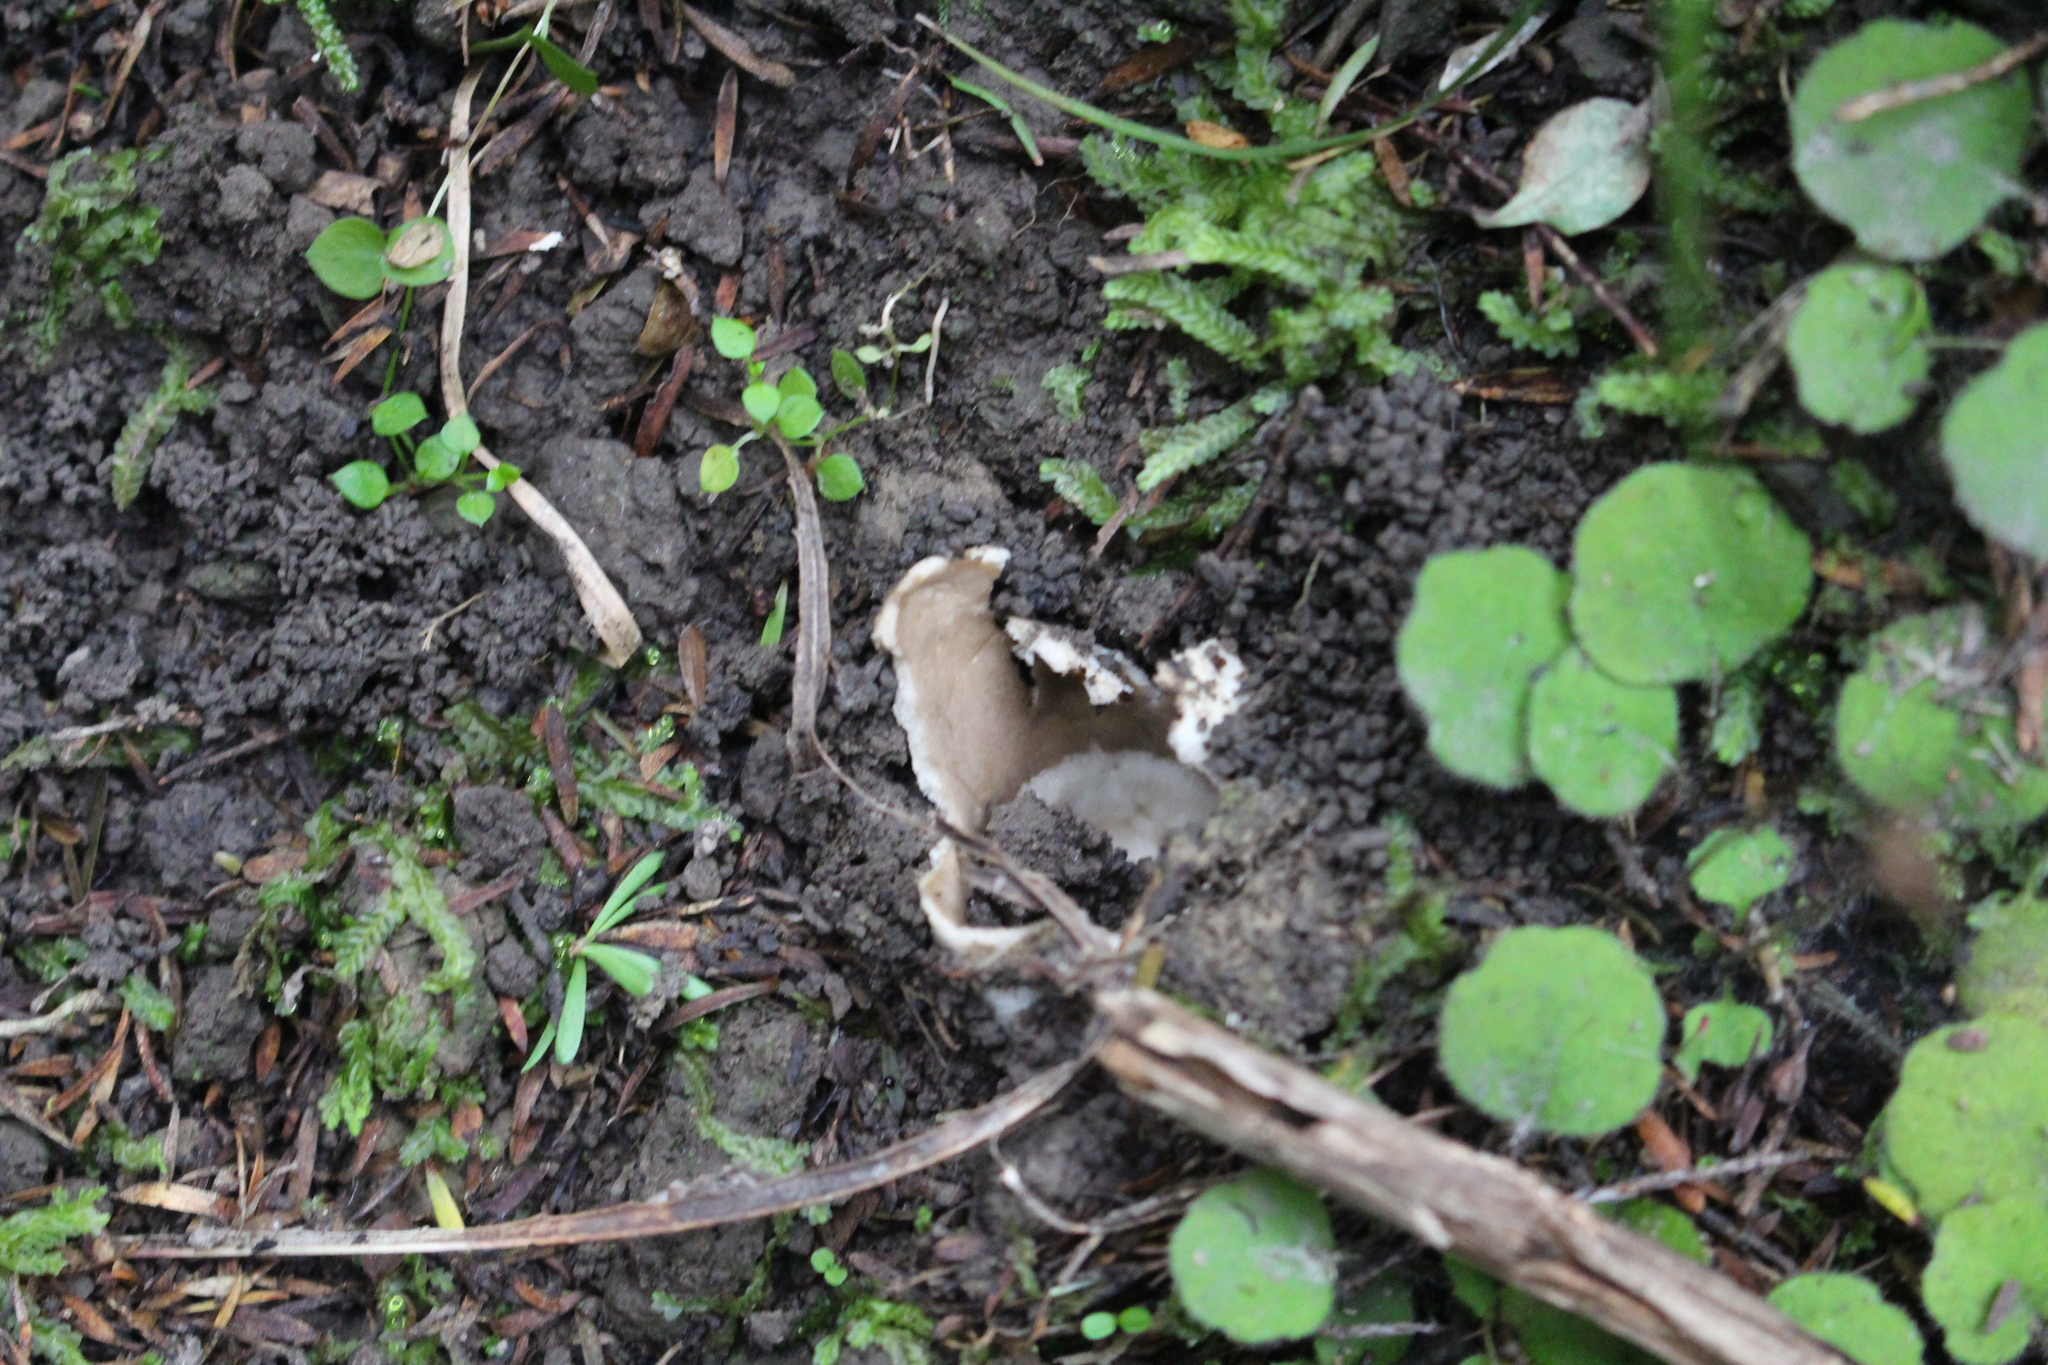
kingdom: Fungi
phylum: Basidiomycota
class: Agaricomycetes
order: Agaricales
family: Amanitaceae
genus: Amanita
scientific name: Amanita pekeoides
